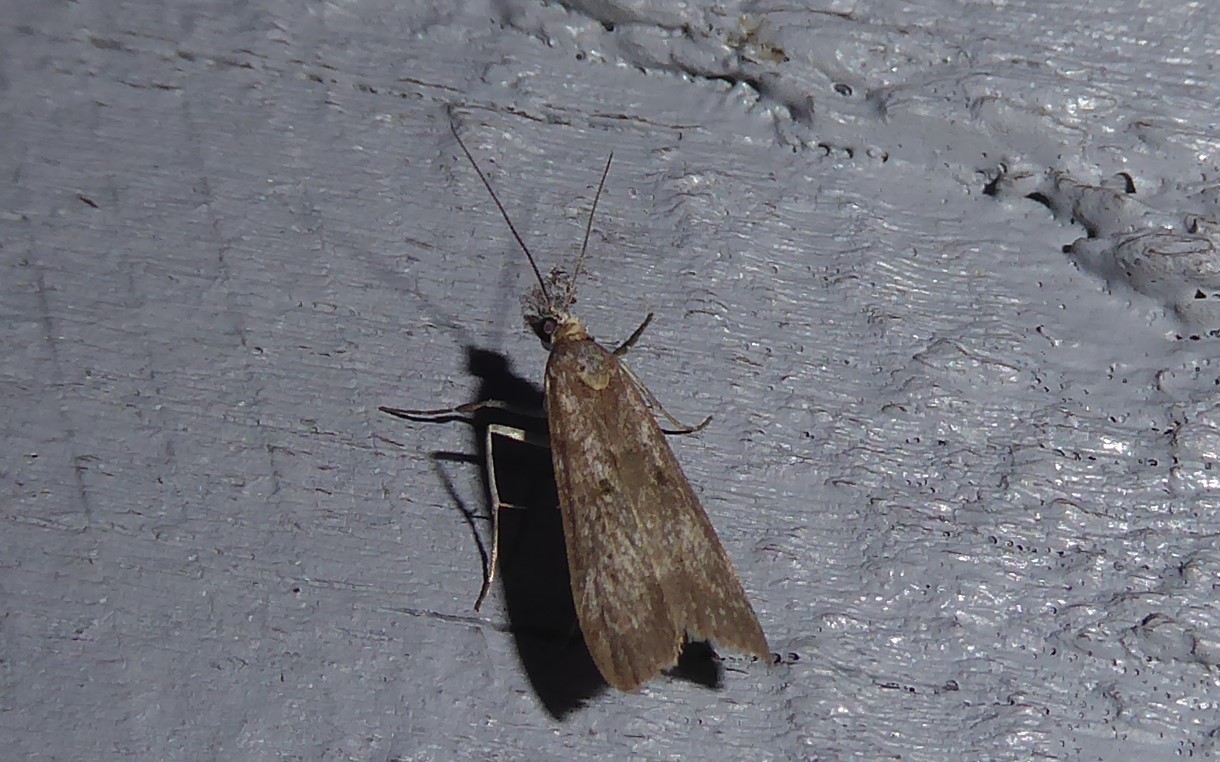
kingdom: Animalia
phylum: Arthropoda
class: Insecta
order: Lepidoptera
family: Crambidae
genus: Eudonia
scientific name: Eudonia leptalea
